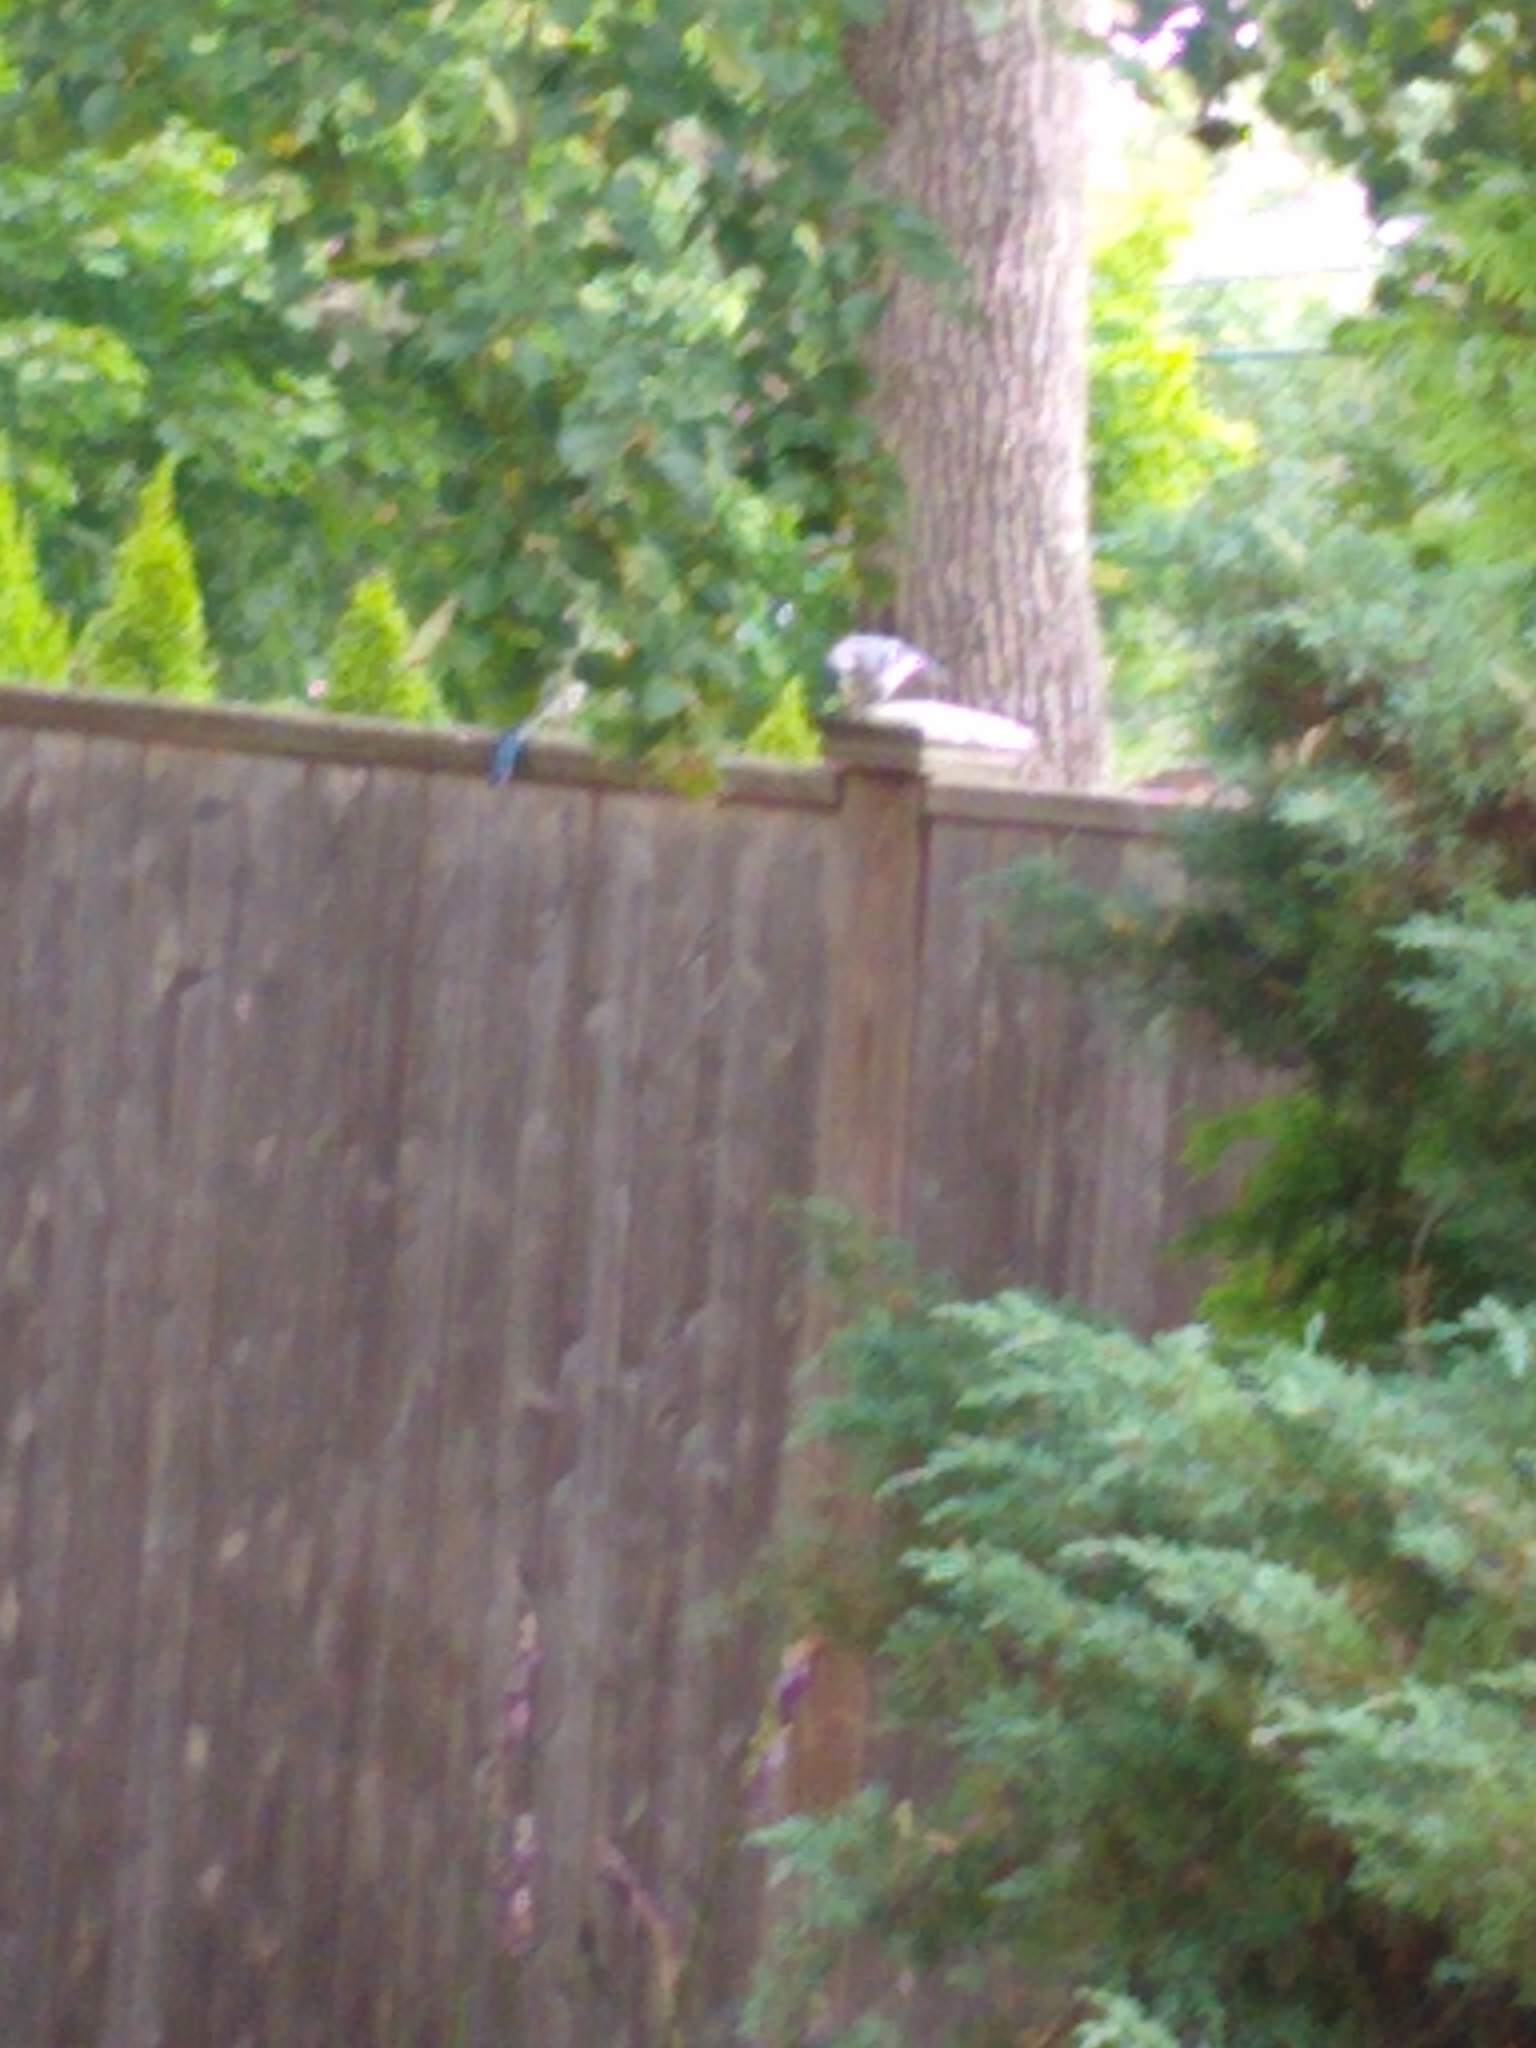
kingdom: Animalia
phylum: Chordata
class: Aves
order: Passeriformes
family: Corvidae
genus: Cyanocitta
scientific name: Cyanocitta cristata
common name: Blue jay
